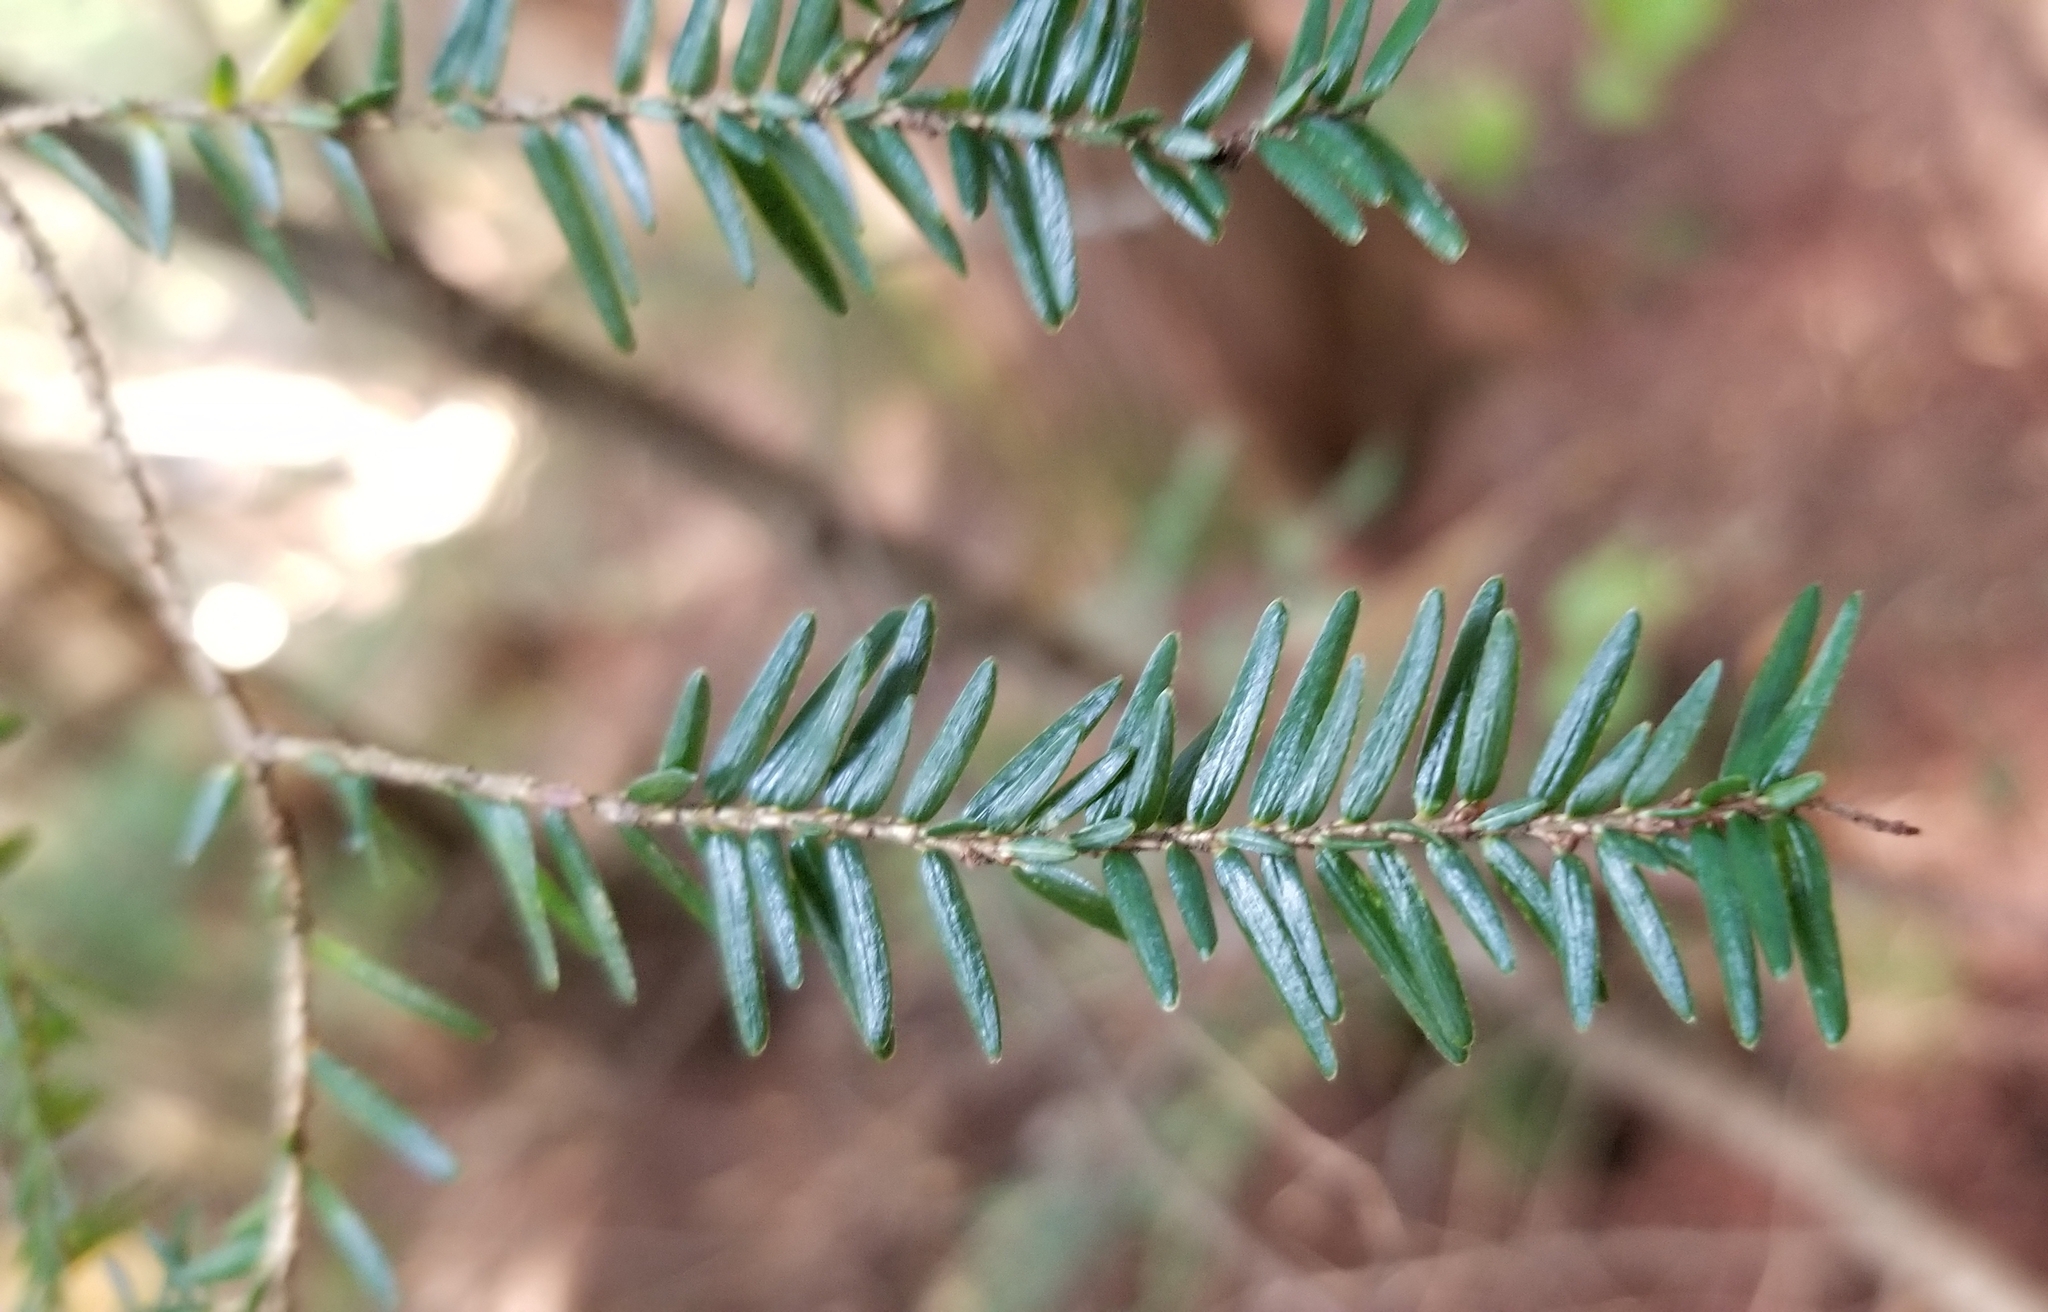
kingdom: Plantae
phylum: Tracheophyta
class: Pinopsida
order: Pinales
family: Pinaceae
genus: Tsuga
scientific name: Tsuga canadensis
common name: Eastern hemlock
